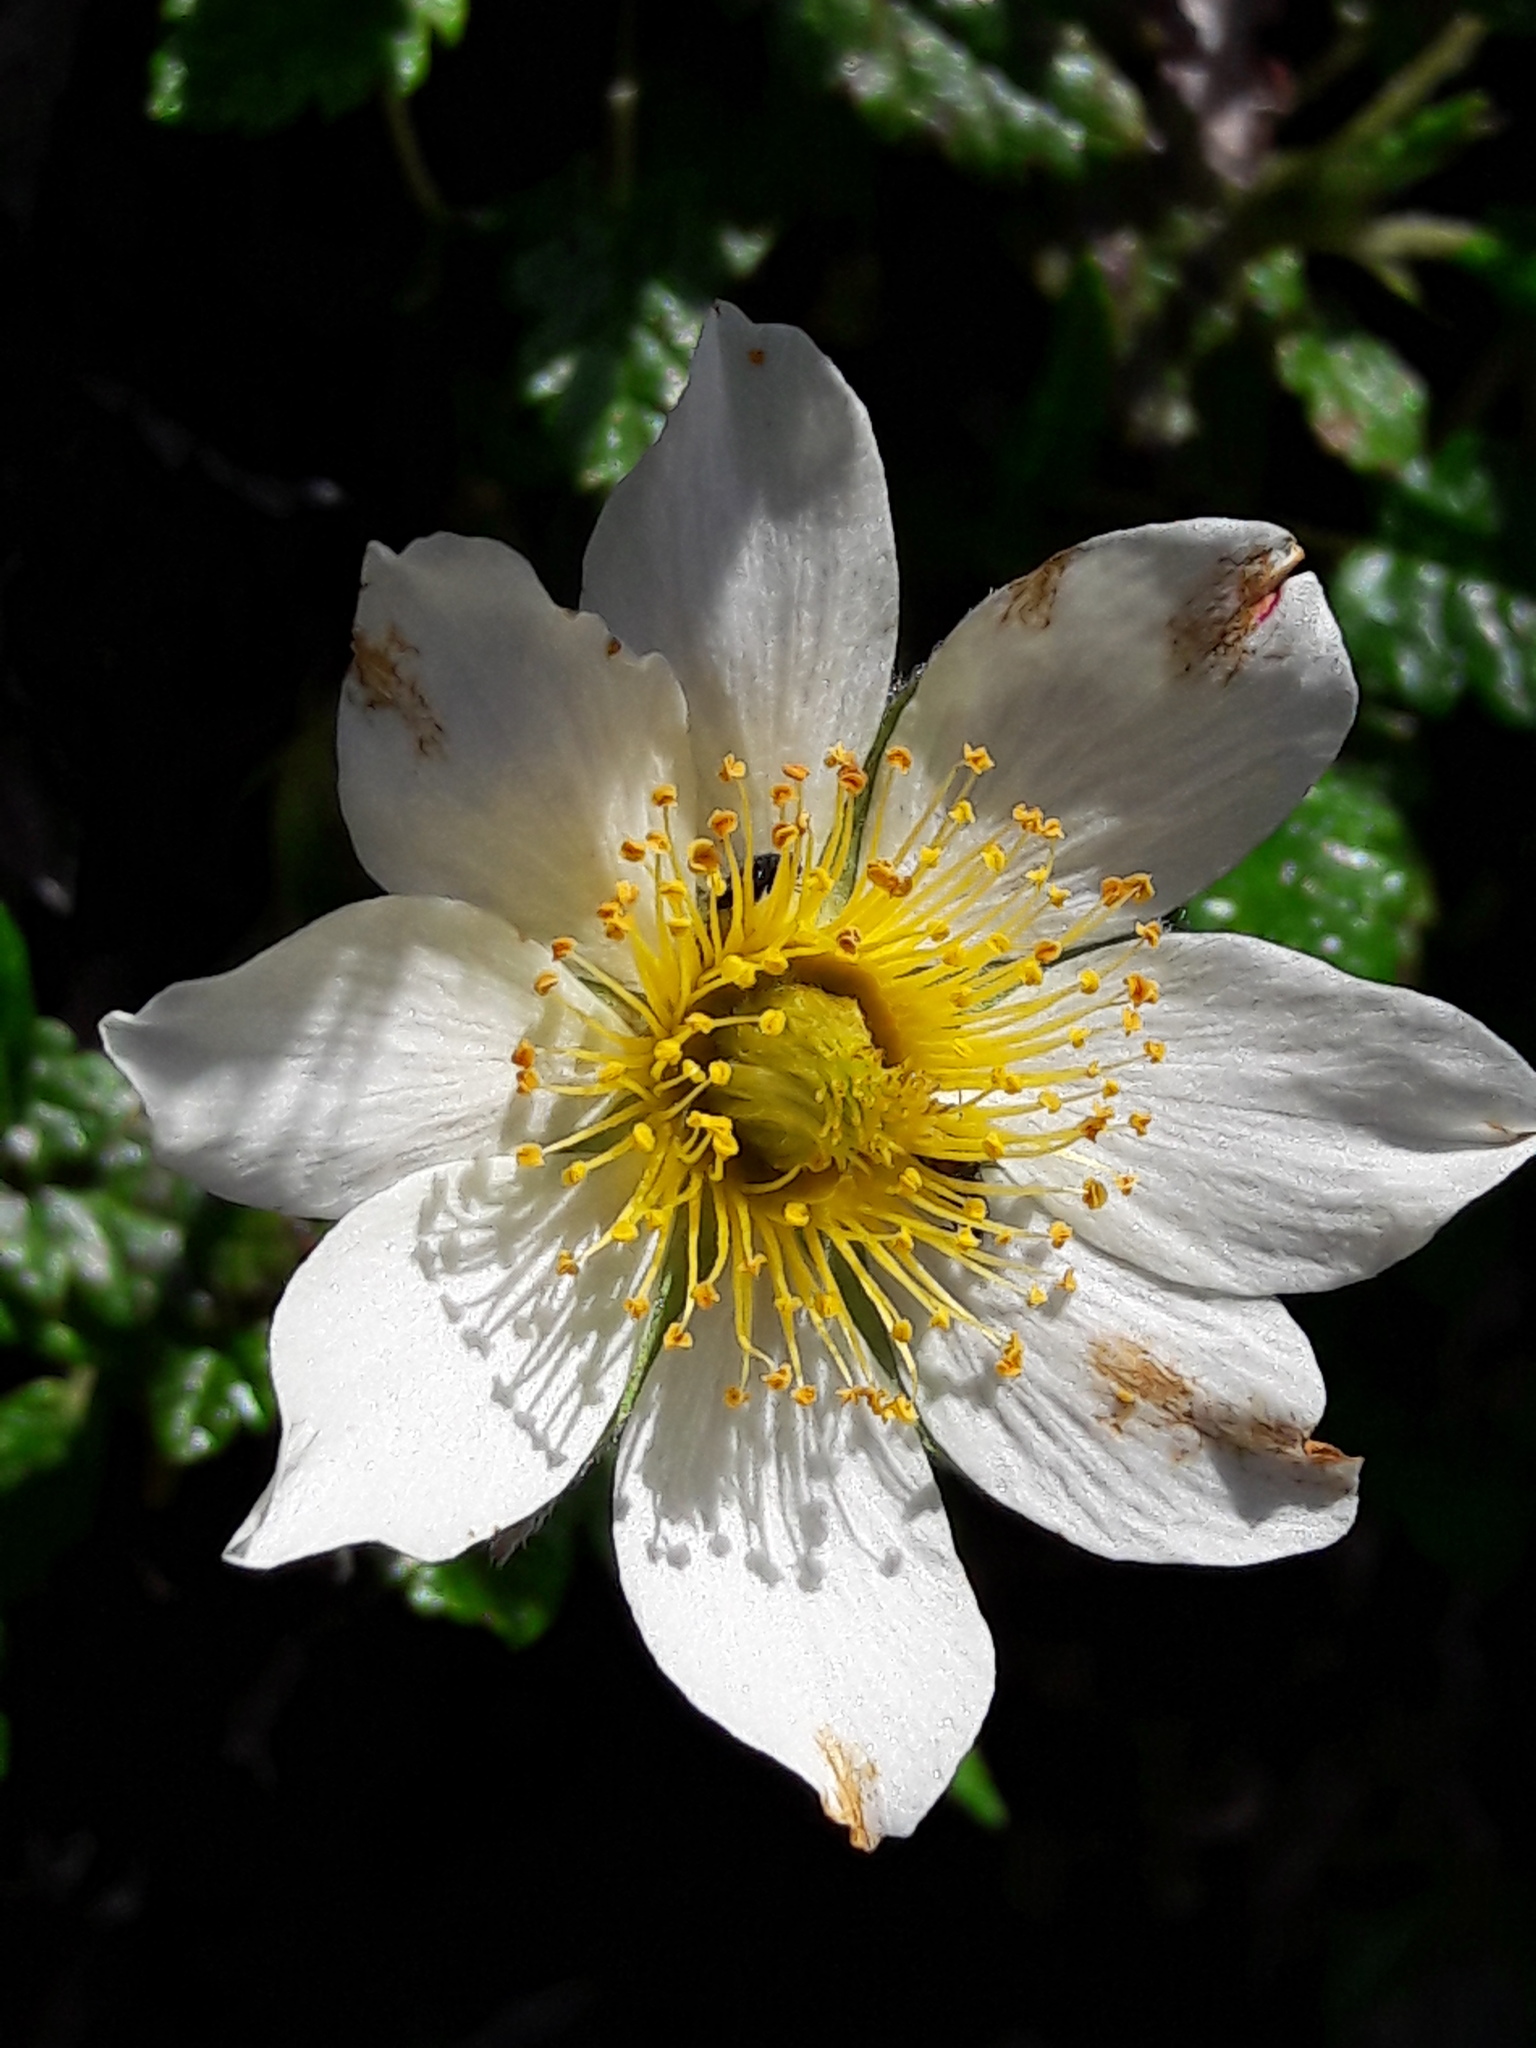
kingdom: Plantae
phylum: Tracheophyta
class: Magnoliopsida
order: Rosales
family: Rosaceae
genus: Dryas
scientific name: Dryas octopetala
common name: Eight-petal mountain-avens
